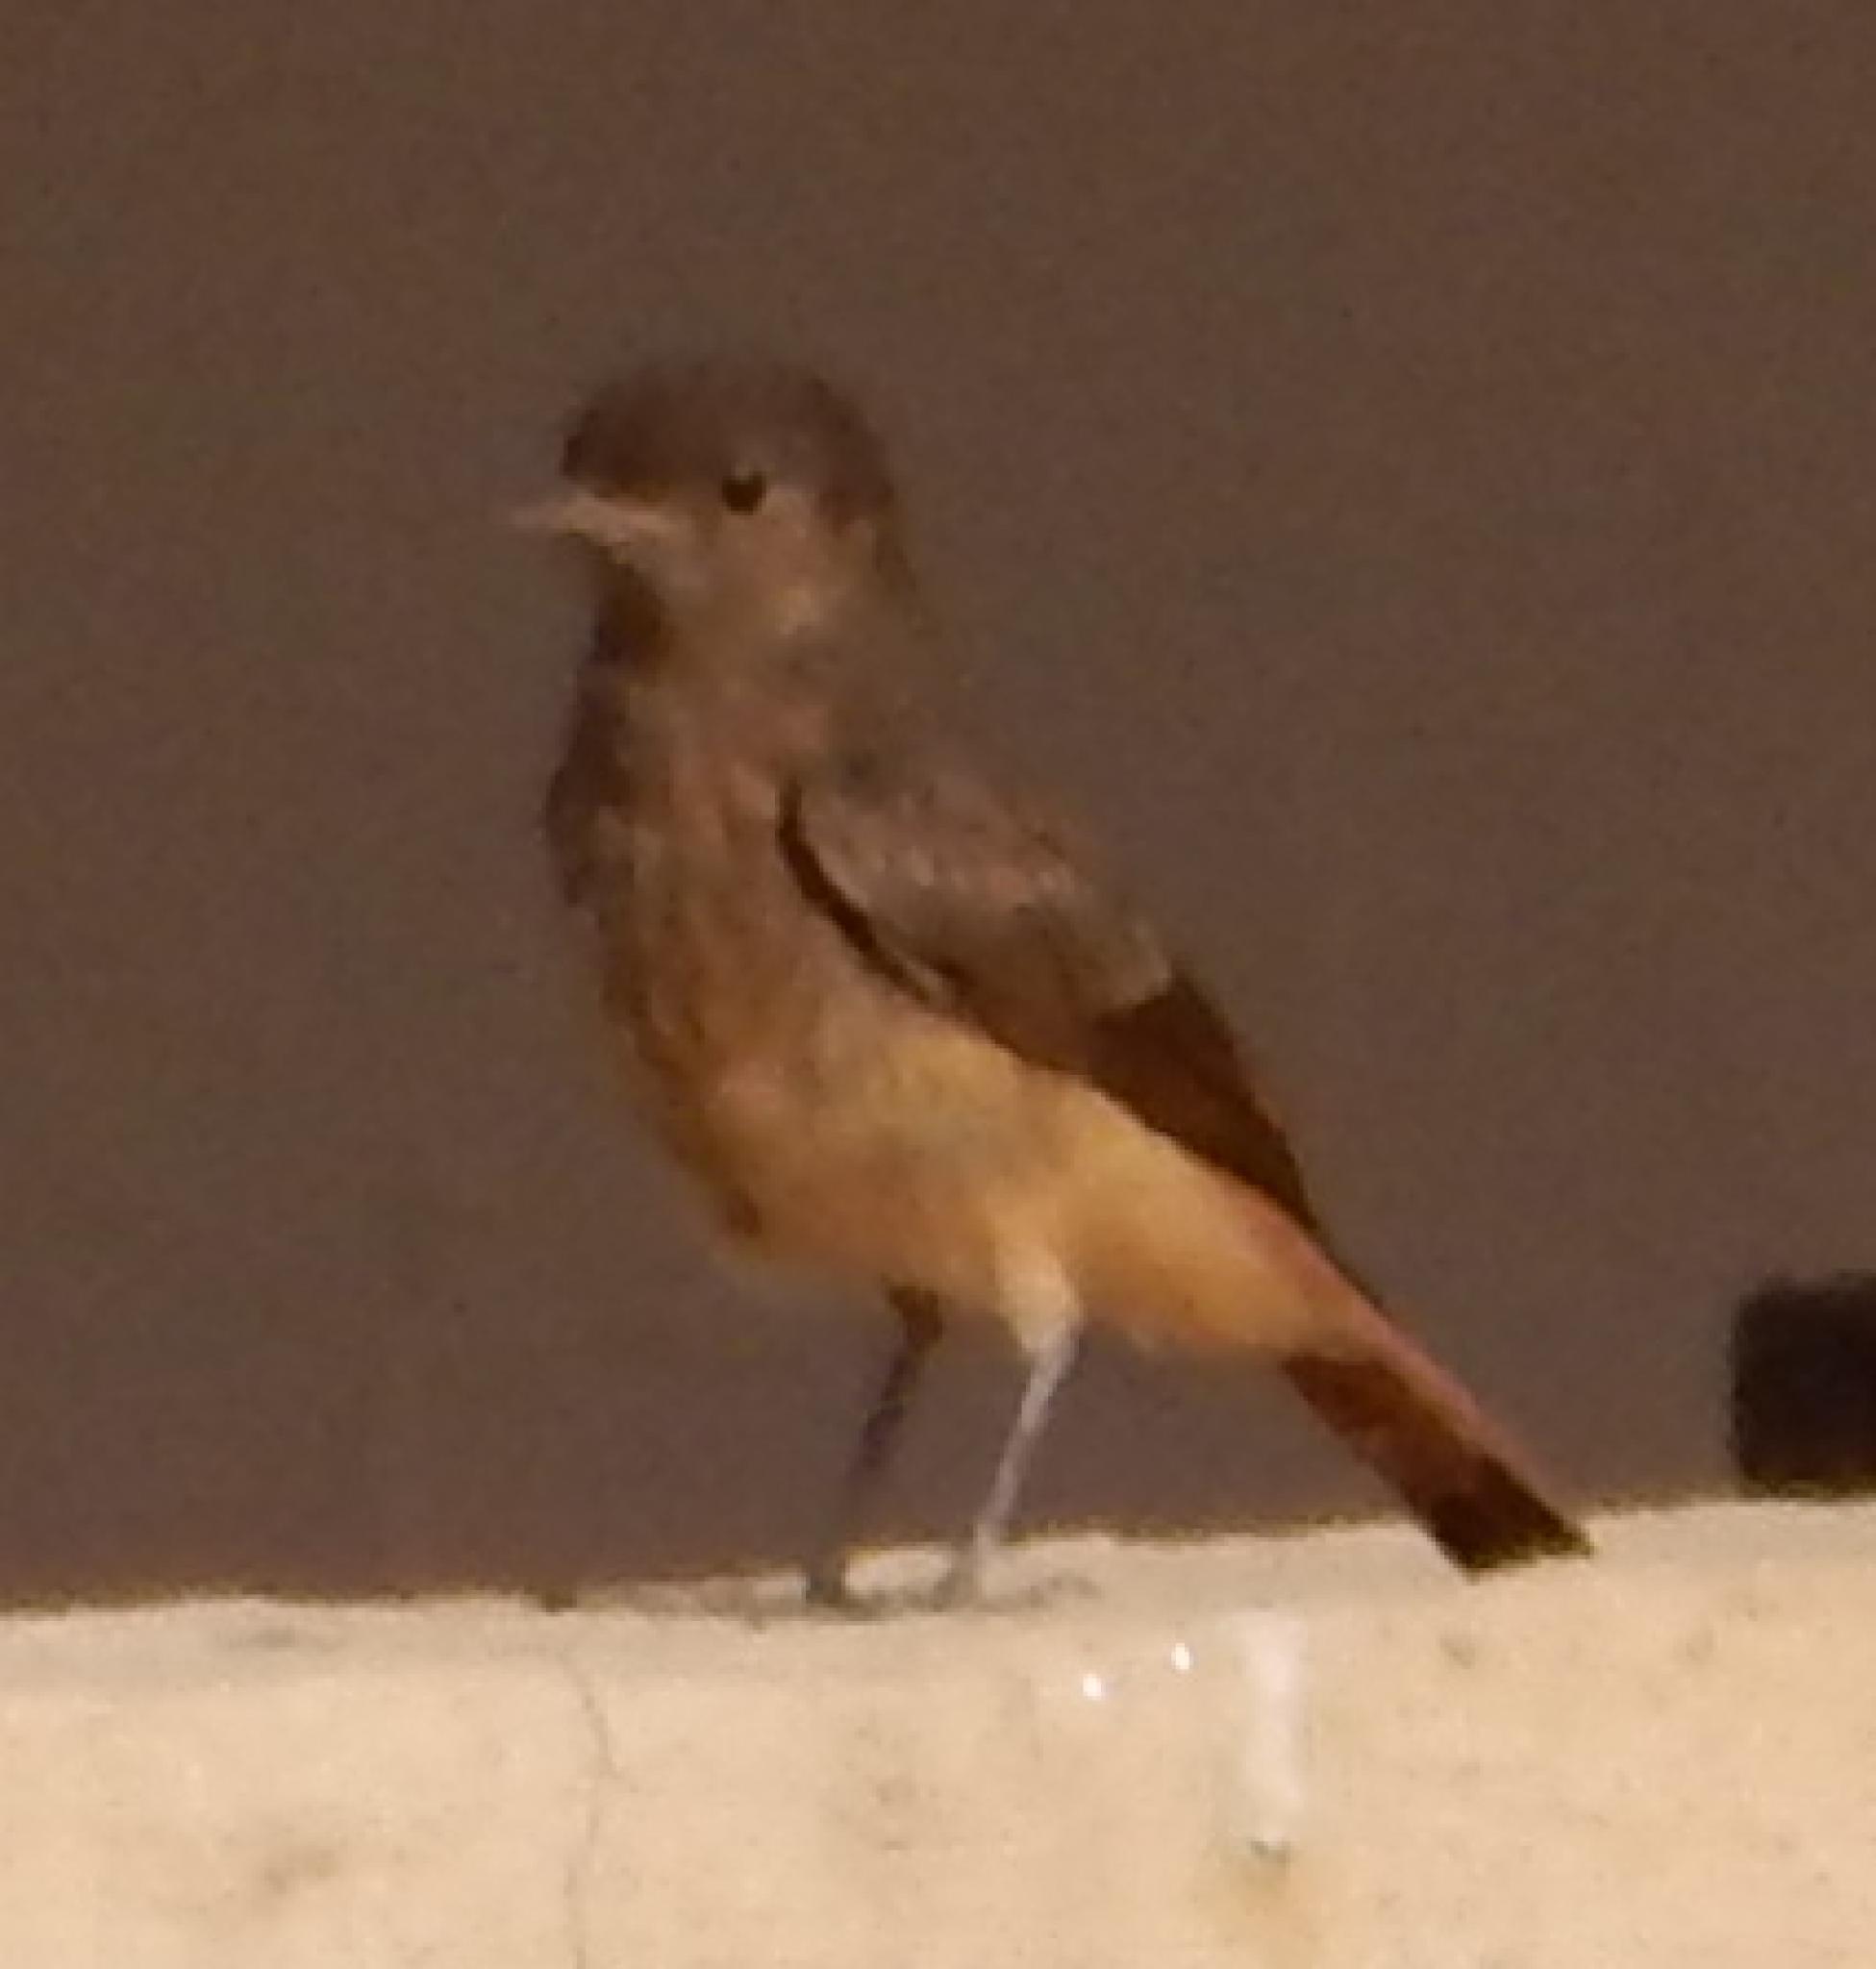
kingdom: Animalia
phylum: Chordata
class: Aves
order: Passeriformes
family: Muscicapidae
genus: Oenanthe
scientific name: Oenanthe familiaris
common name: Familiar chat
